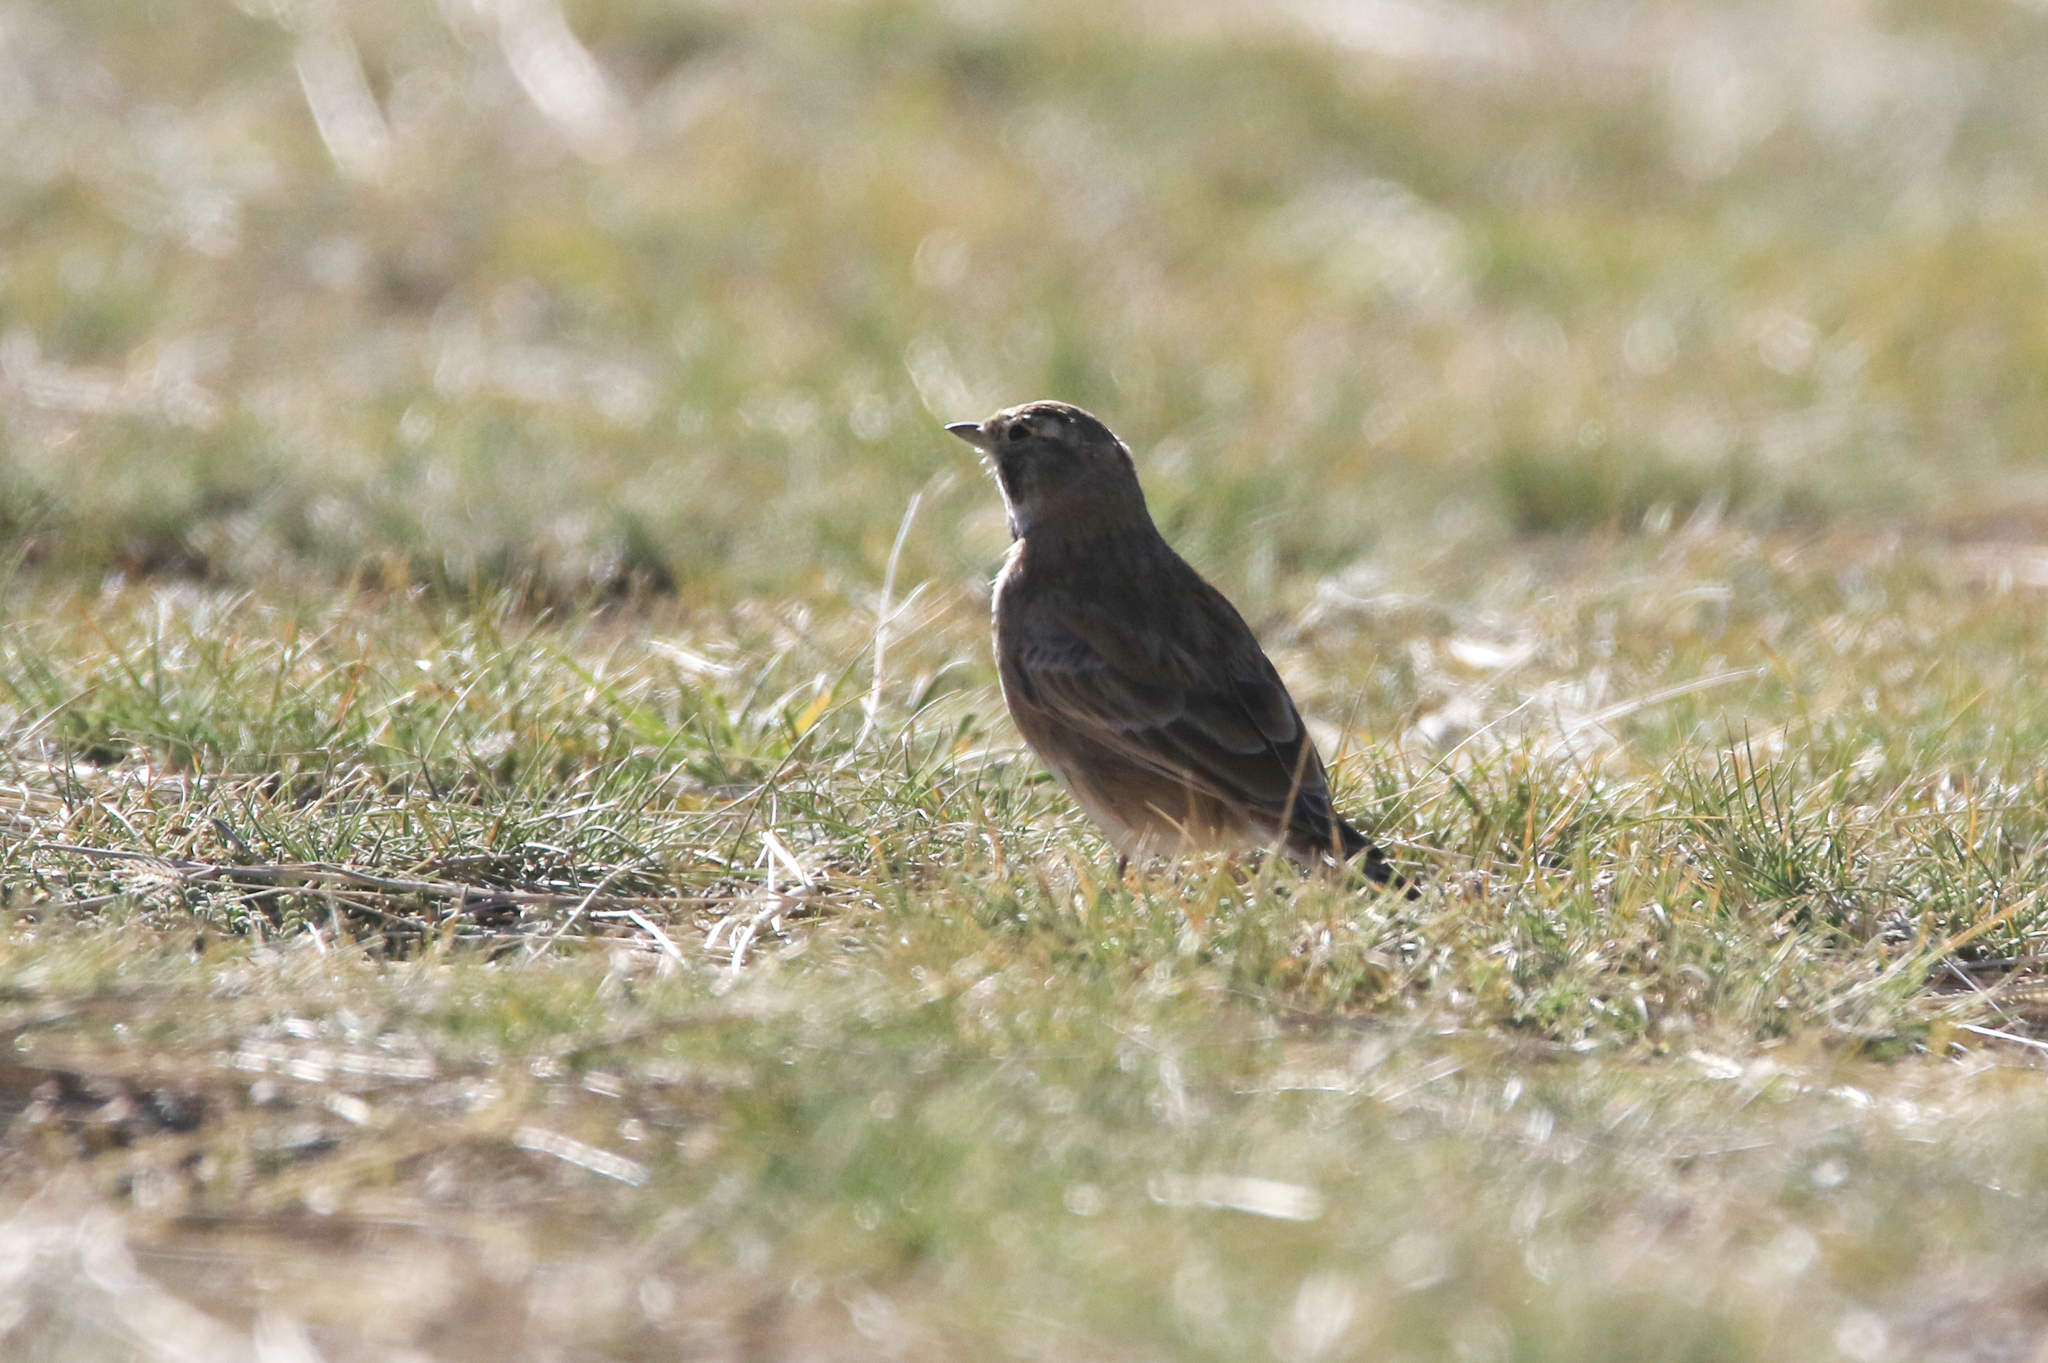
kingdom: Animalia
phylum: Chordata
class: Aves
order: Passeriformes
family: Alaudidae
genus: Eremophila
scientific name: Eremophila alpestris
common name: Horned lark
